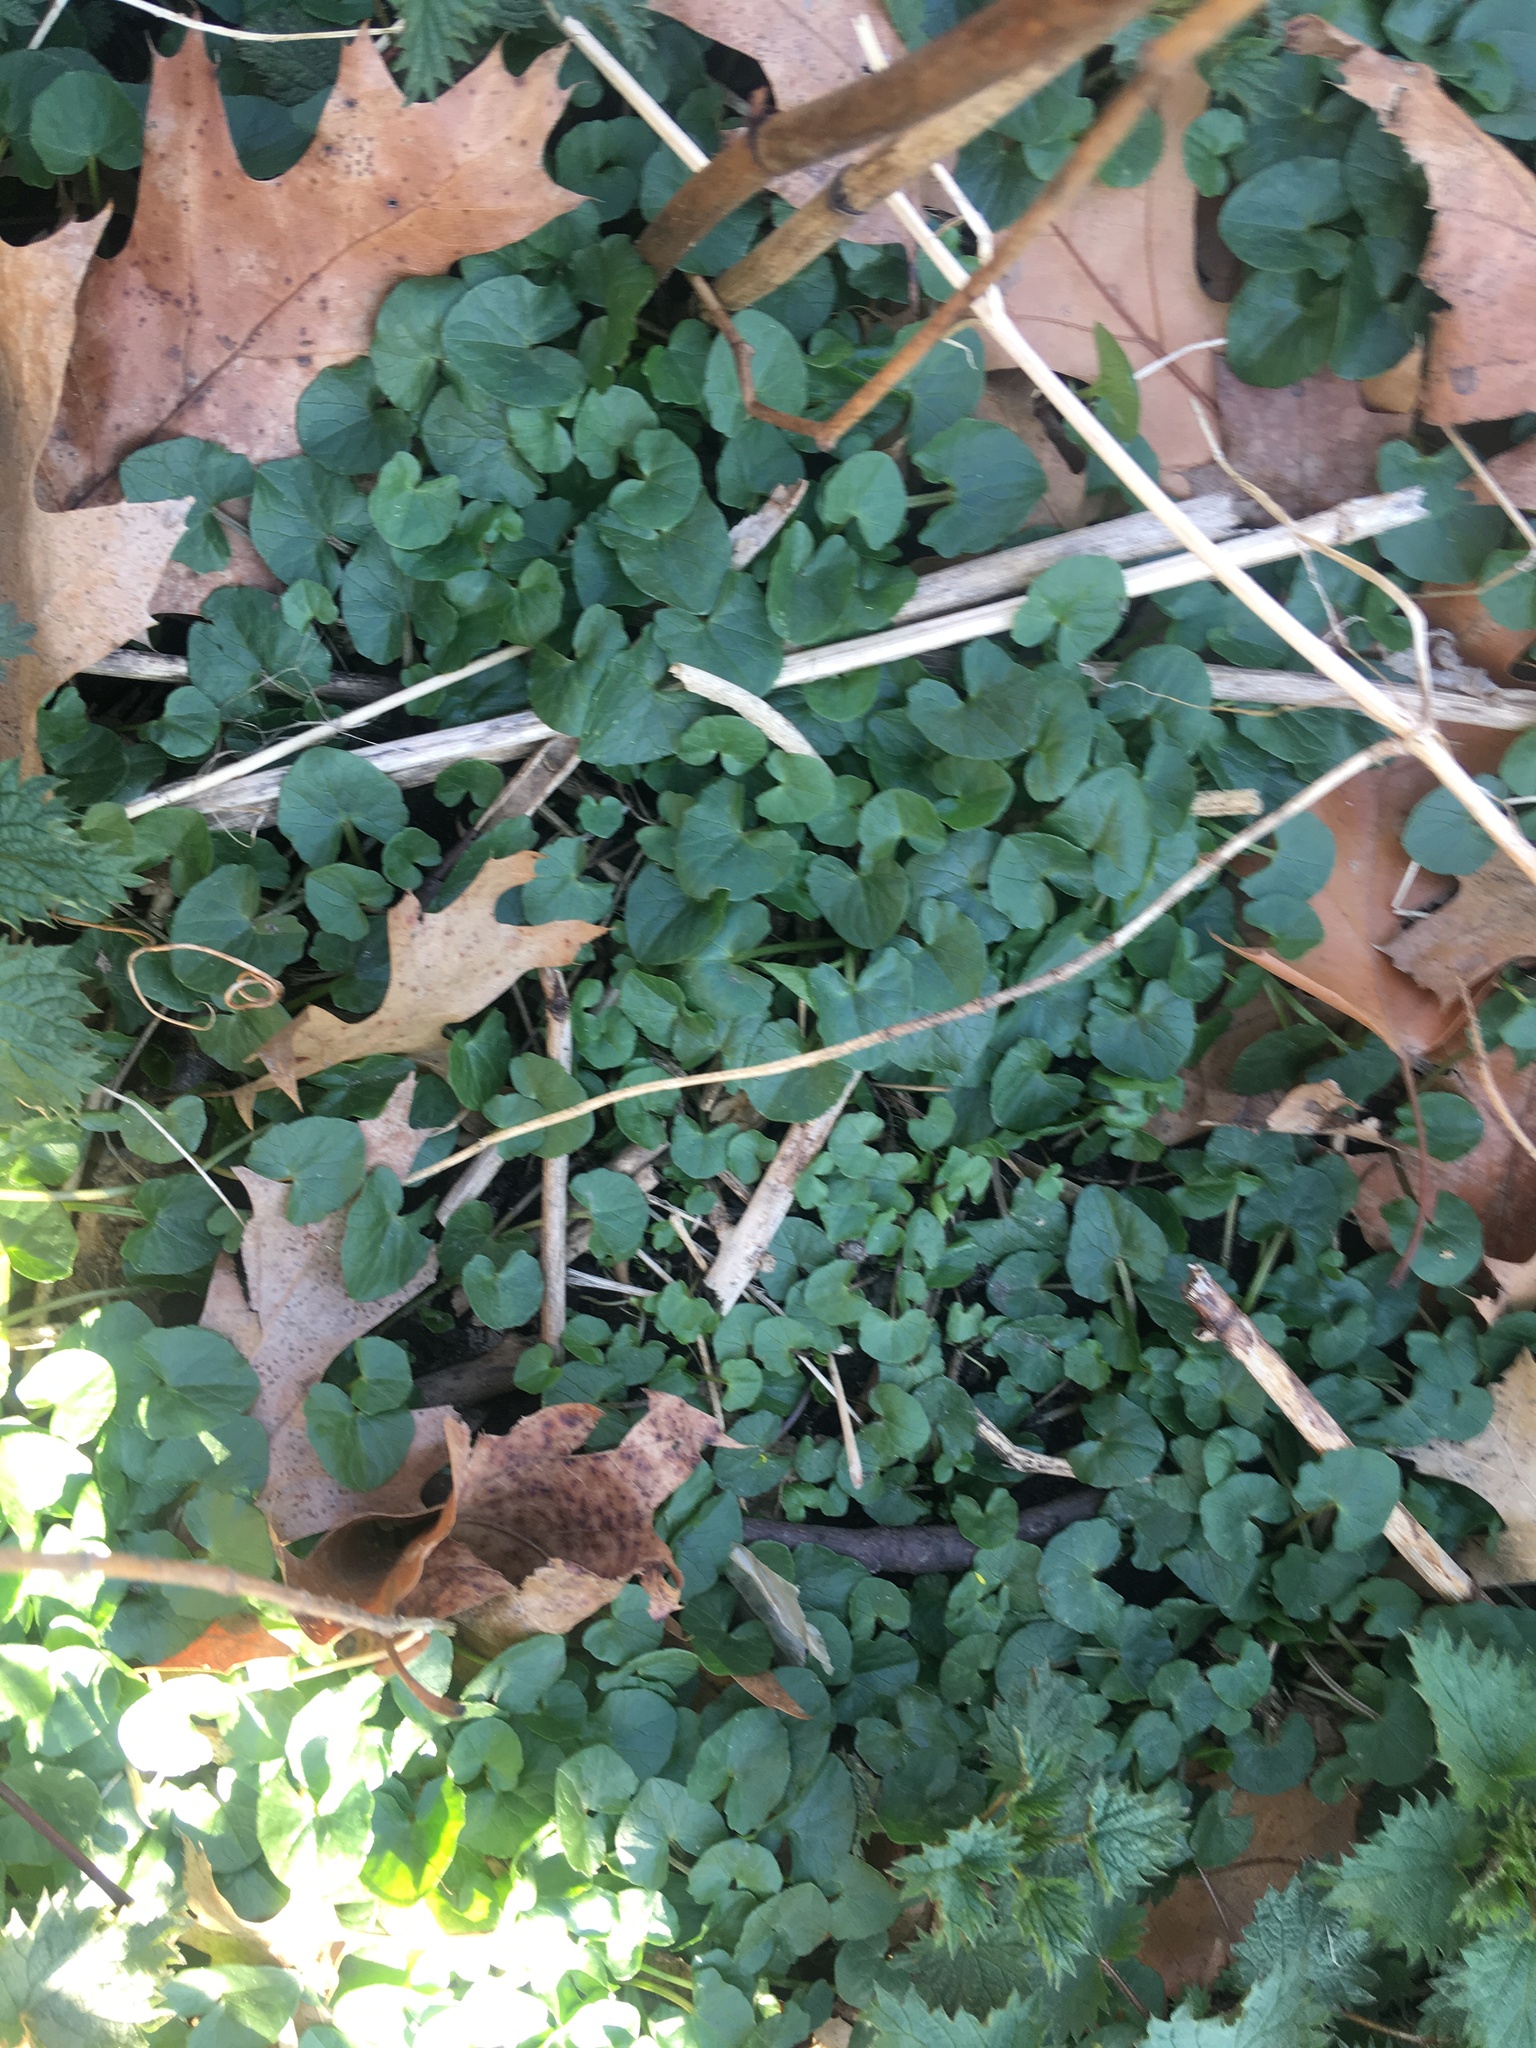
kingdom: Plantae
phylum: Tracheophyta
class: Magnoliopsida
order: Ranunculales
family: Ranunculaceae
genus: Ficaria
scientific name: Ficaria verna
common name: Lesser celandine
